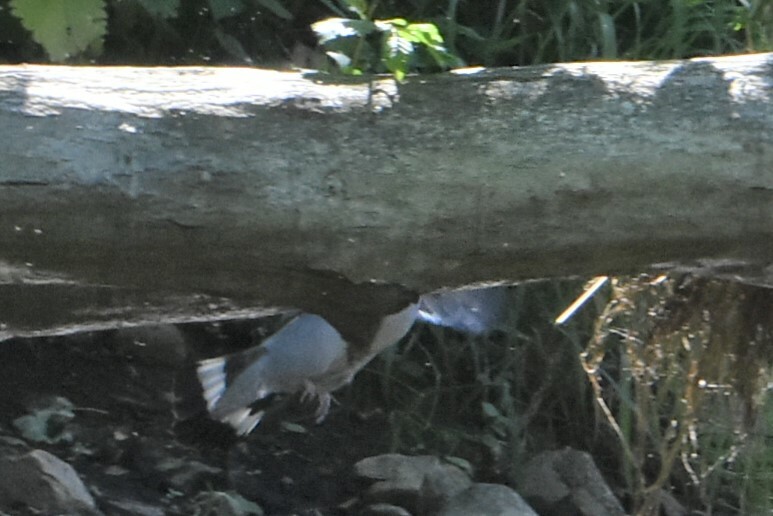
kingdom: Animalia
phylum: Chordata
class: Aves
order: Columbiformes
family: Columbidae
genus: Columba
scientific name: Columba palumbus
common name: Common wood pigeon
